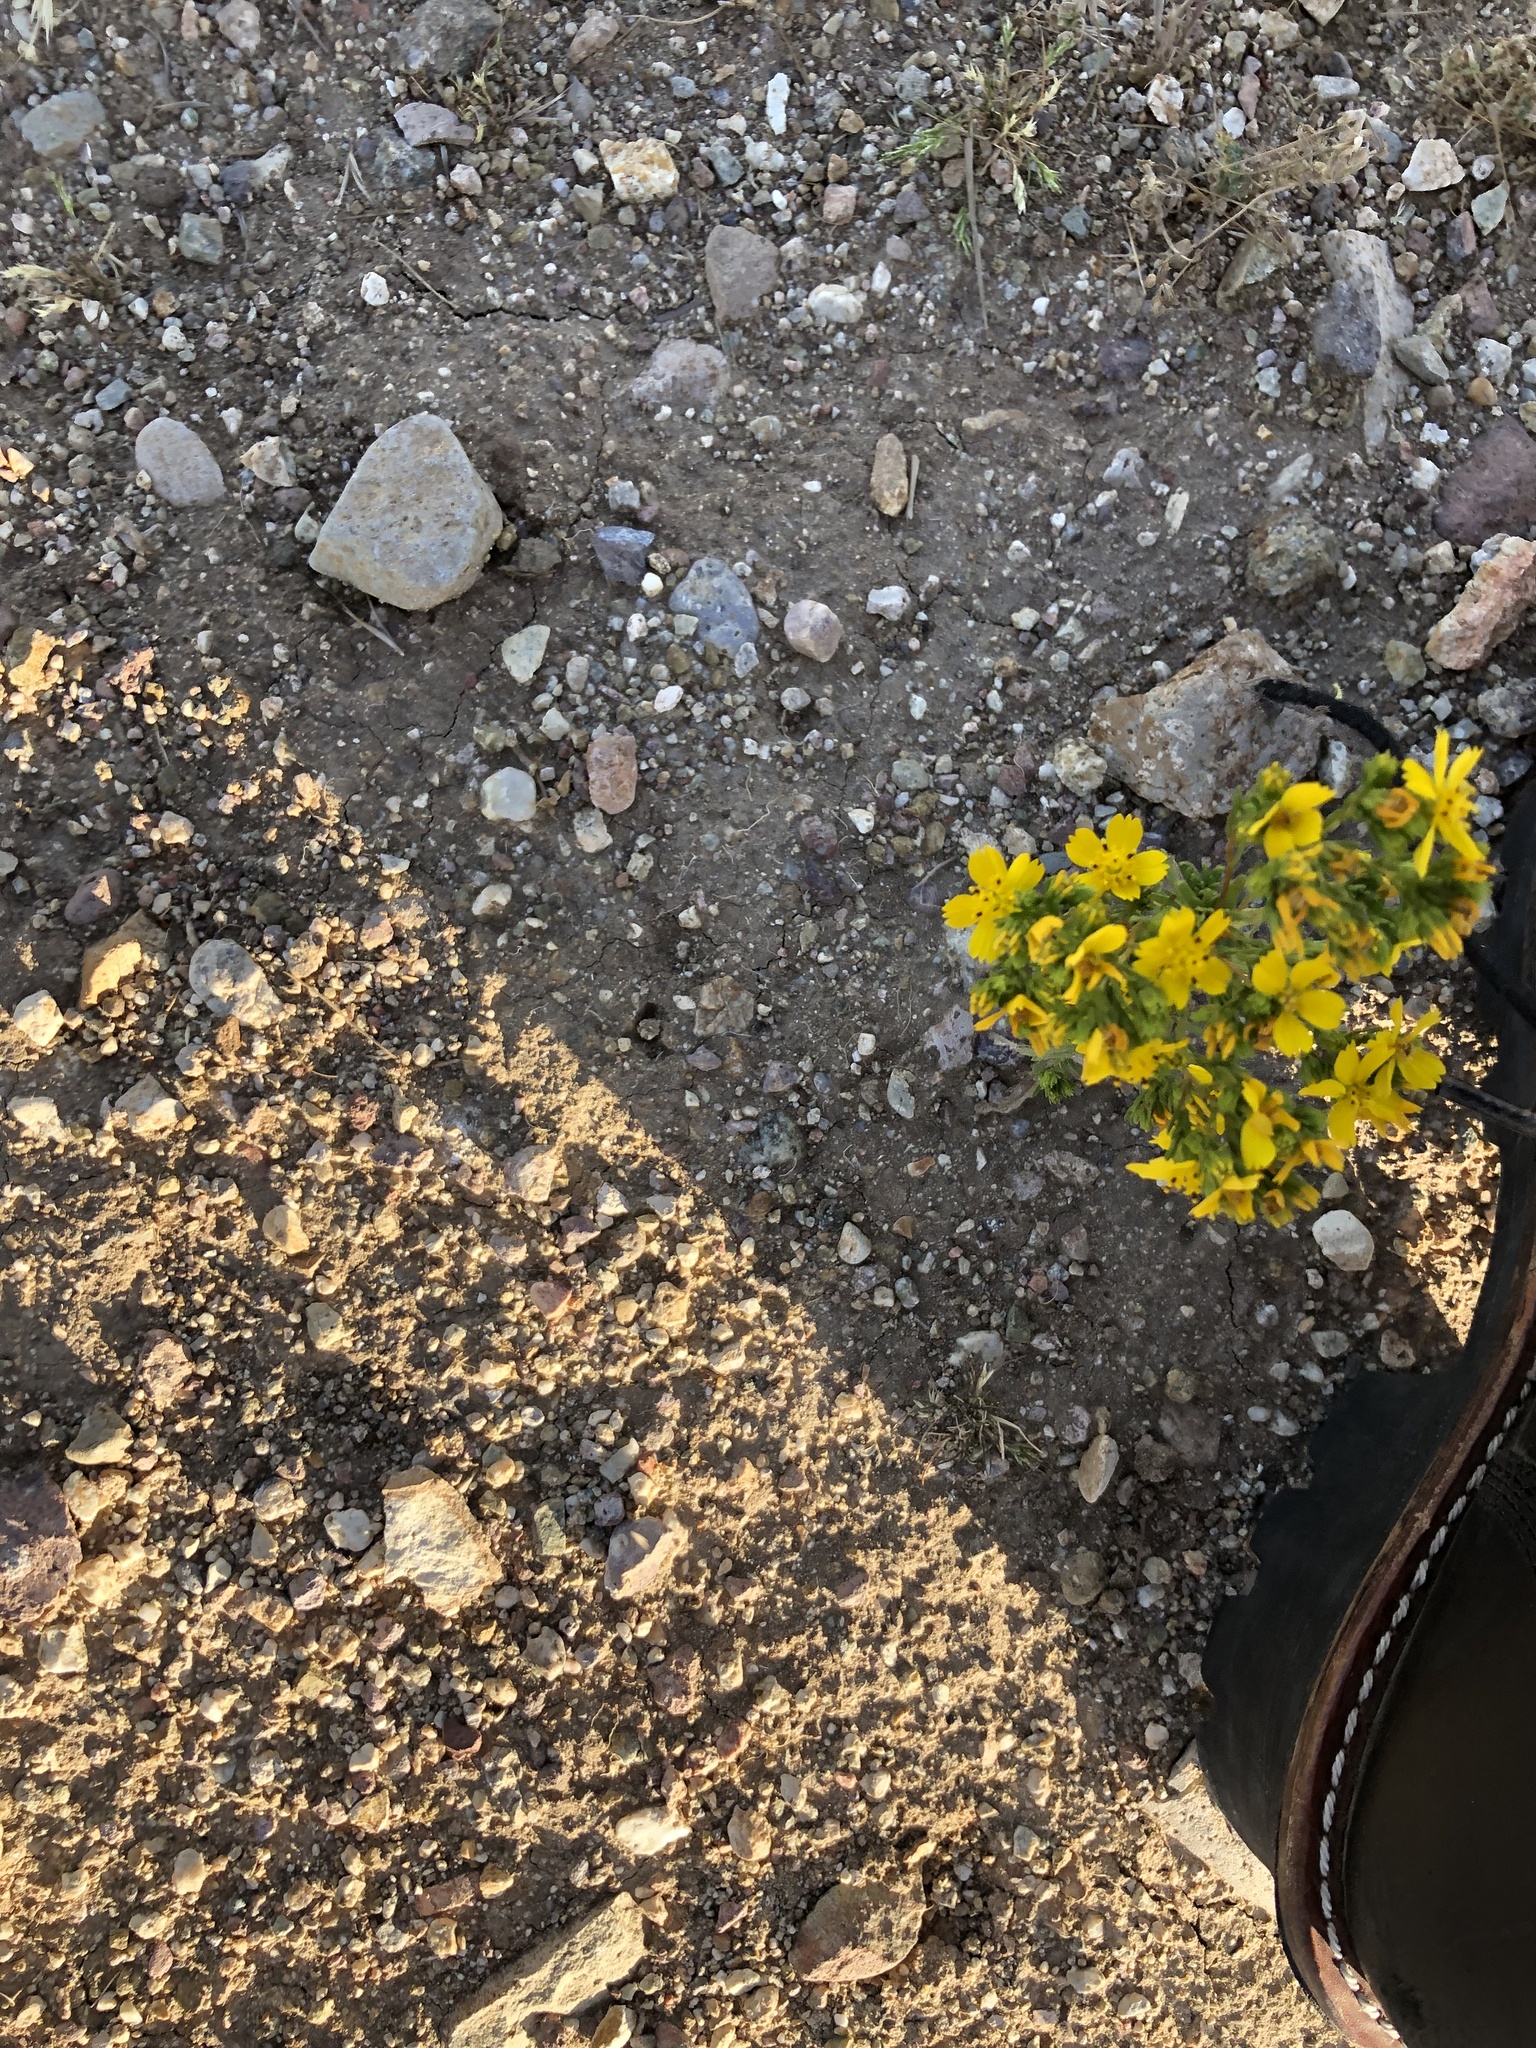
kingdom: Plantae
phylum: Tracheophyta
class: Magnoliopsida
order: Asterales
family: Asteraceae
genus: Deinandra
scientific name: Deinandra fasciculata
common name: Clustered tarweed
